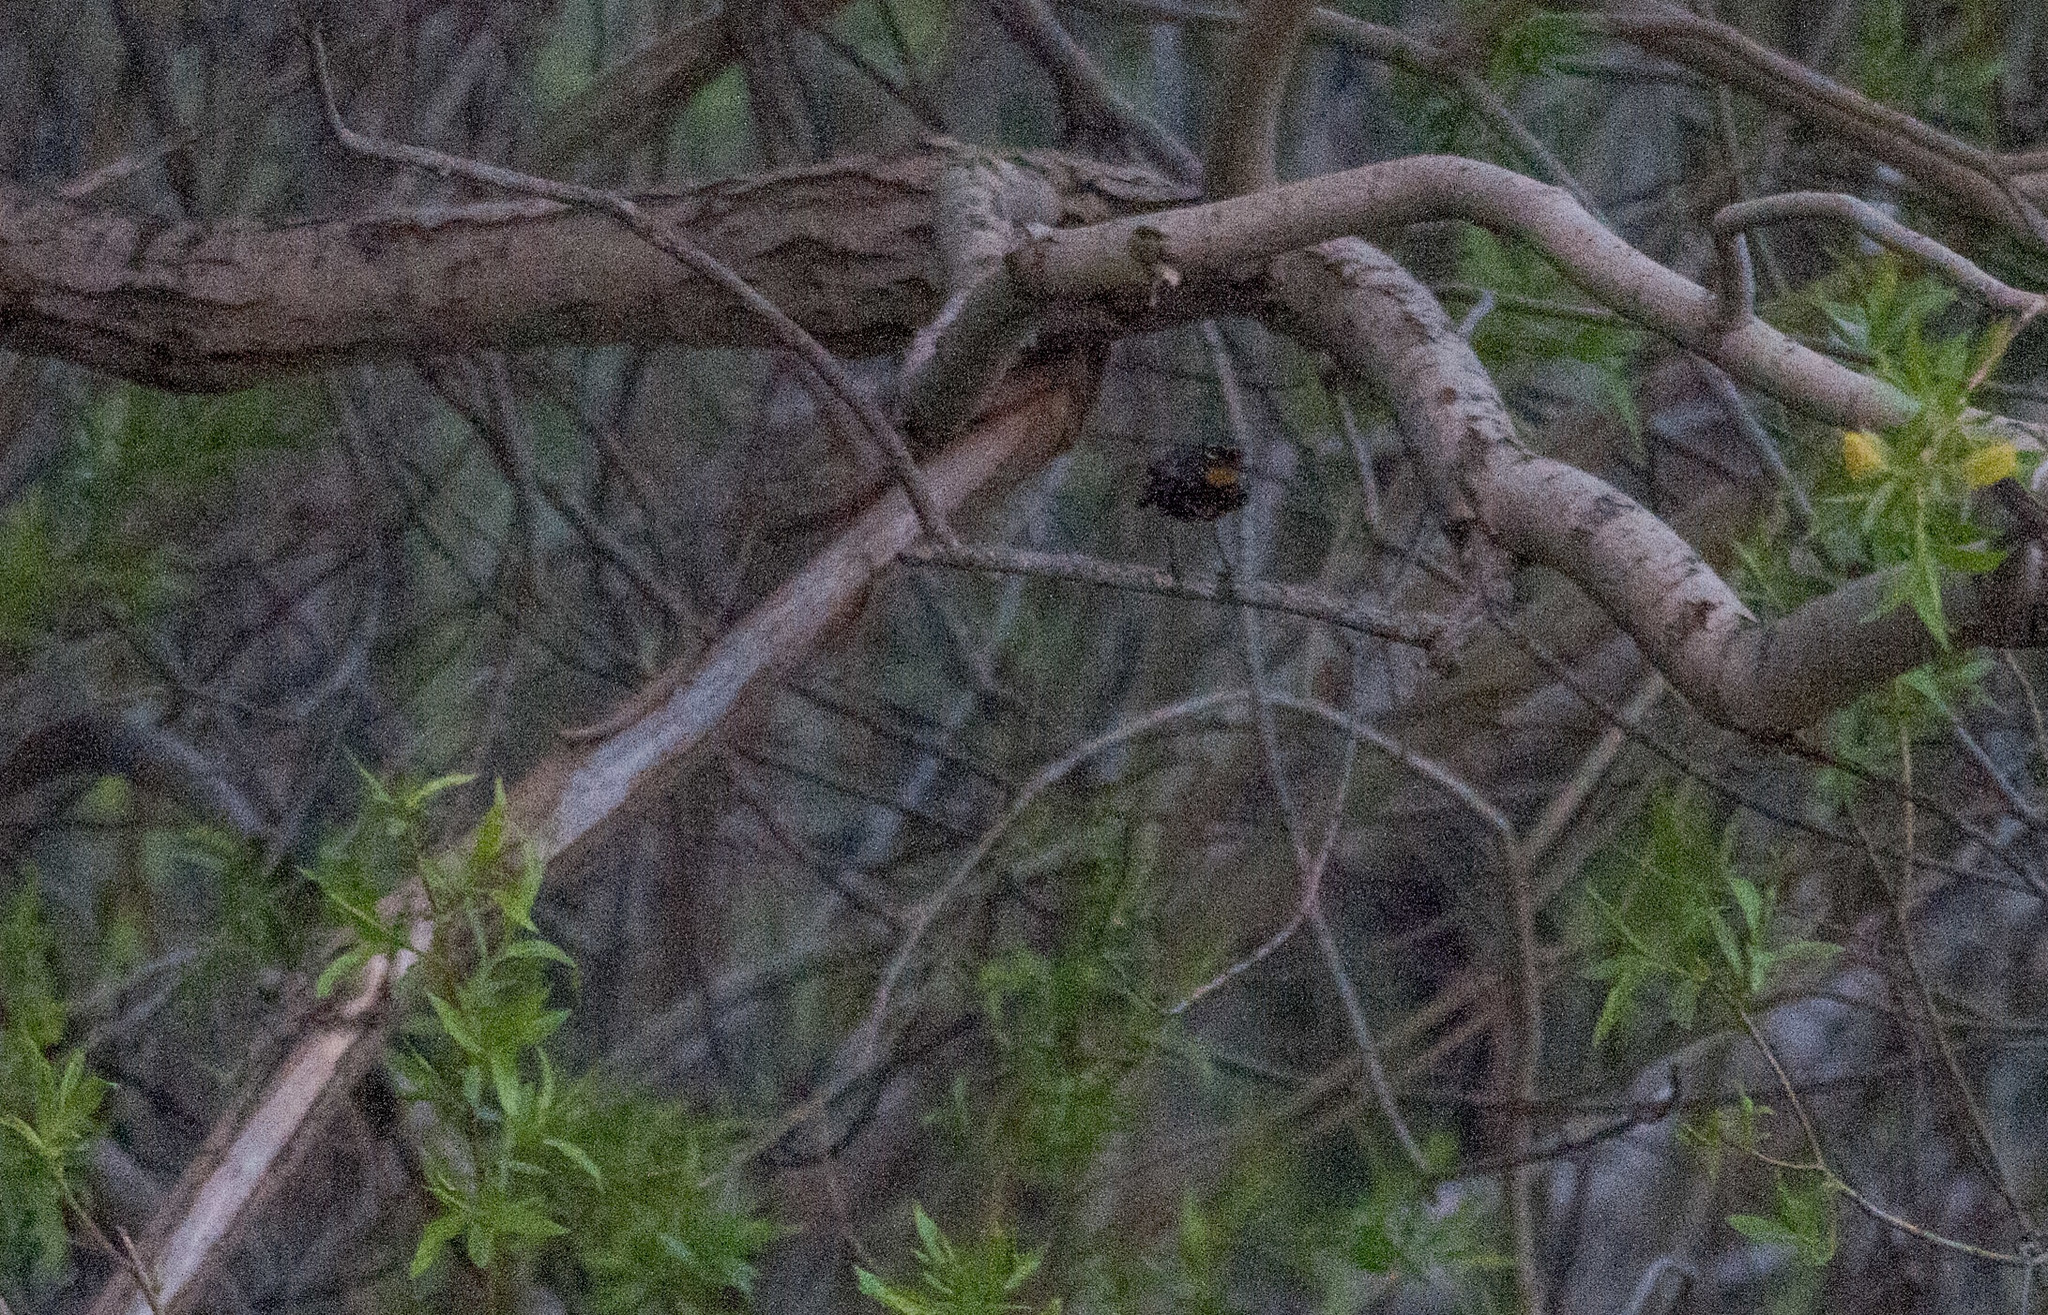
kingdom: Animalia
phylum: Chordata
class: Aves
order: Passeriformes
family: Parulidae
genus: Setophaga
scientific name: Setophaga auduboni
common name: Audubon's warbler
